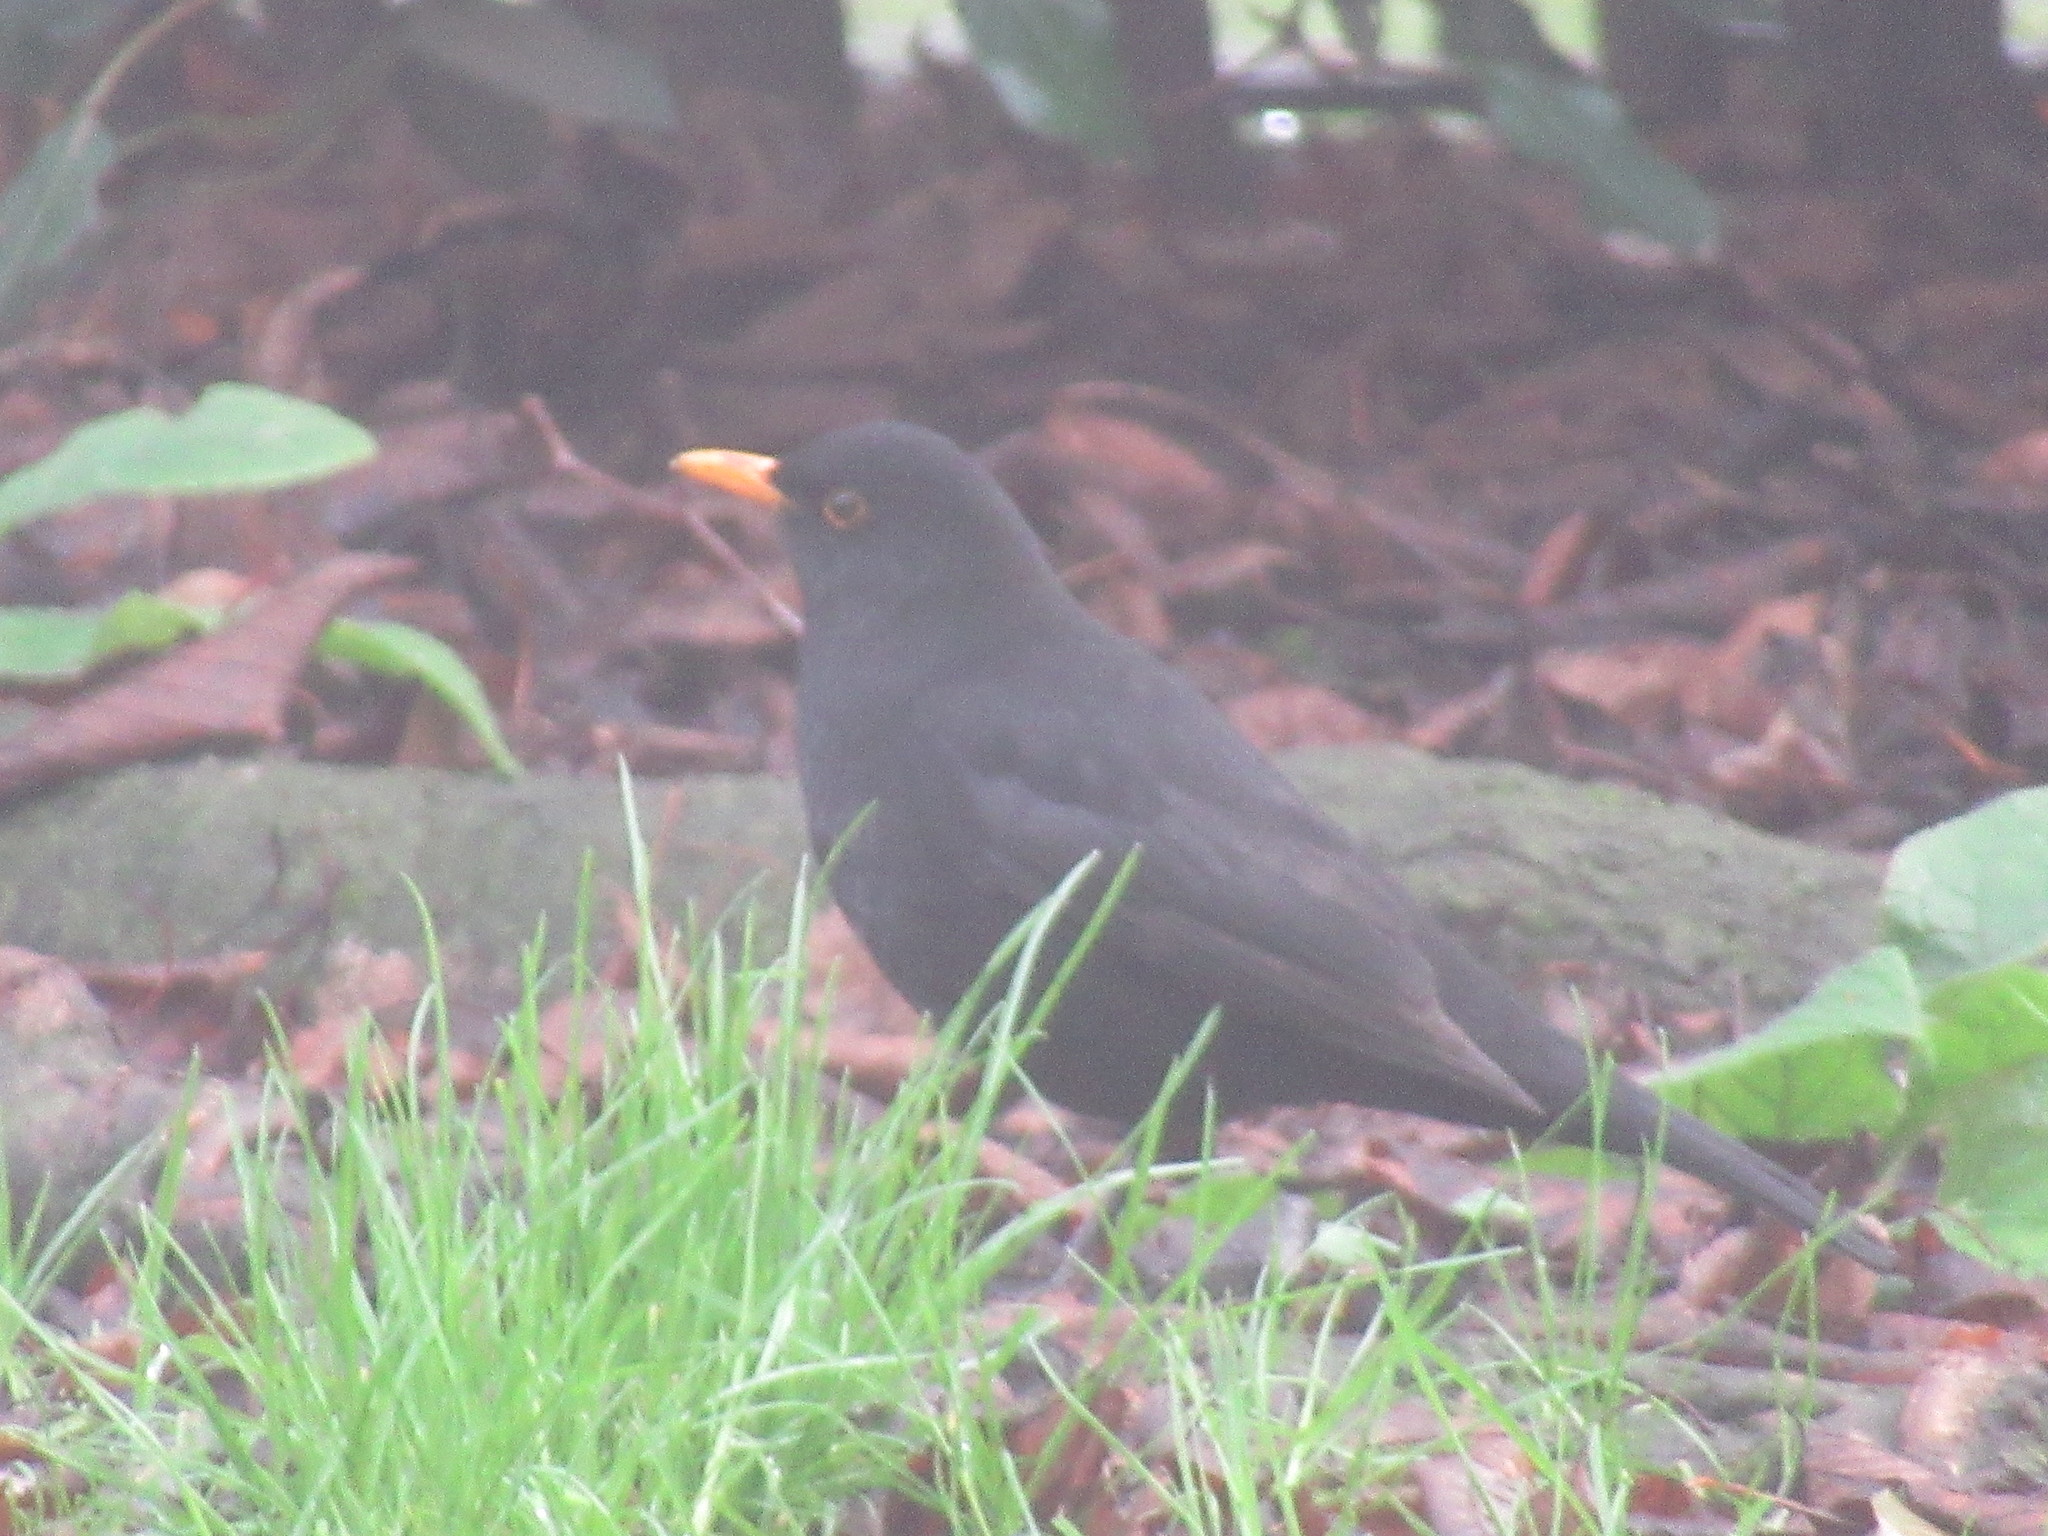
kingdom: Animalia
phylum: Chordata
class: Aves
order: Passeriformes
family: Turdidae
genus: Turdus
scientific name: Turdus merula
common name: Common blackbird
